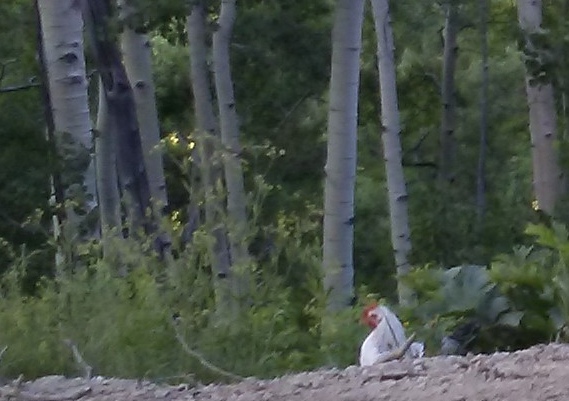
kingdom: Animalia
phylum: Chordata
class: Aves
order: Galliformes
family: Phasianidae
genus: Gallus
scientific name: Gallus gallus
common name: Red junglefowl
